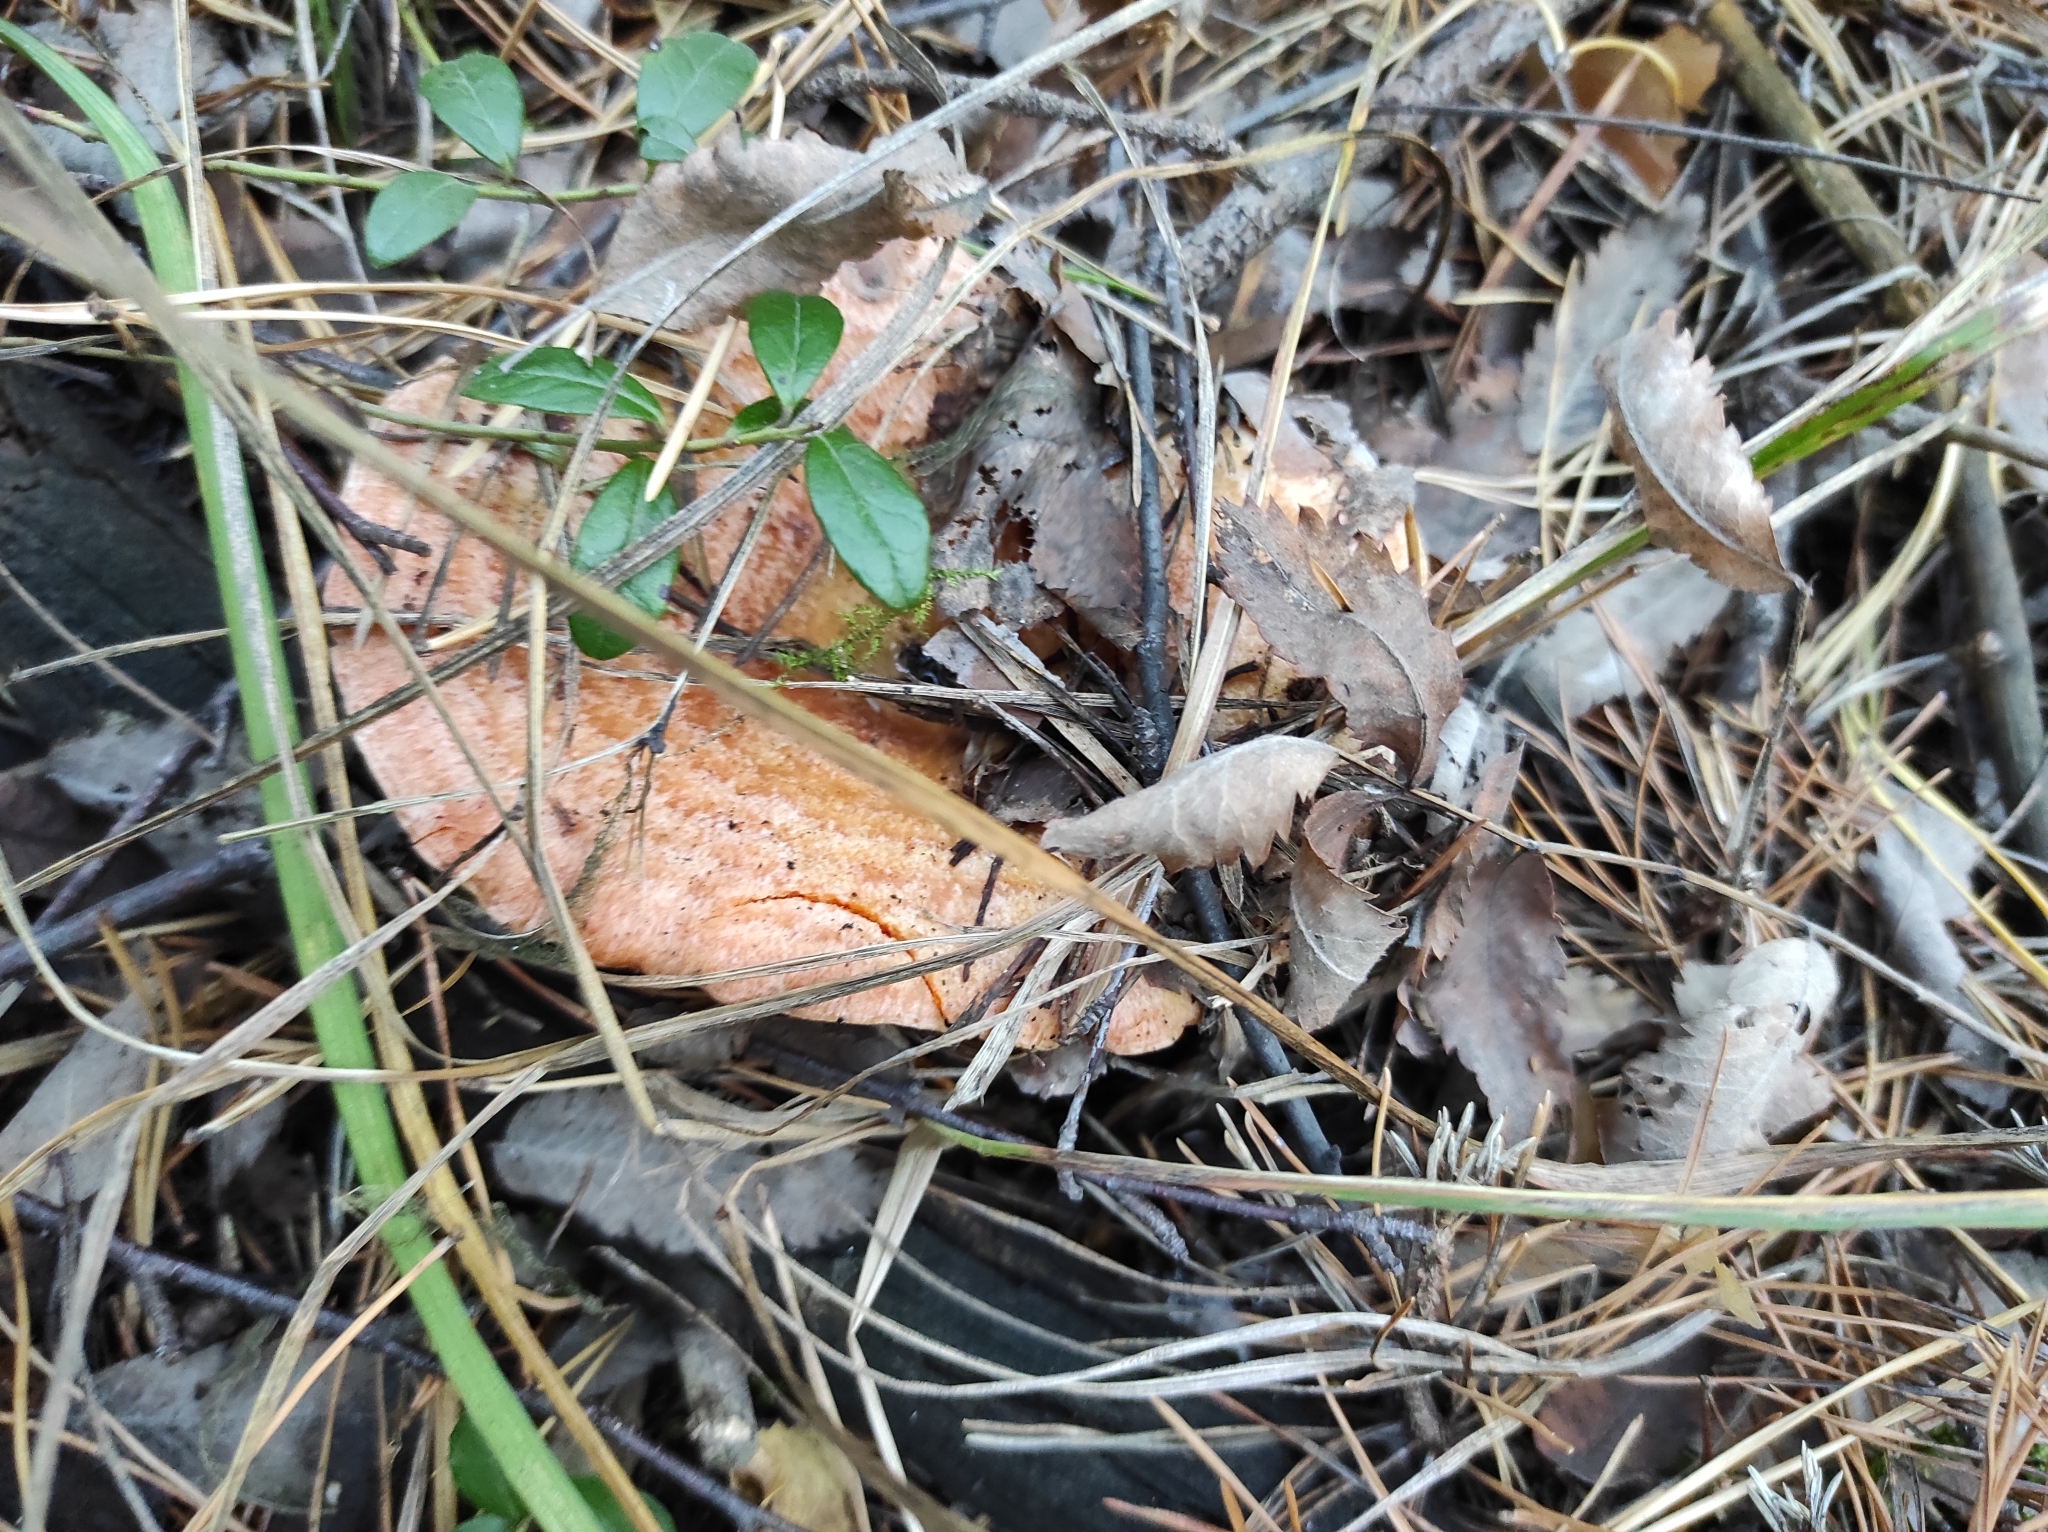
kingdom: Fungi
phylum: Basidiomycota
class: Agaricomycetes
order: Russulales
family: Russulaceae
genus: Lactarius
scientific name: Lactarius deliciosus
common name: Saffron milk-cap
